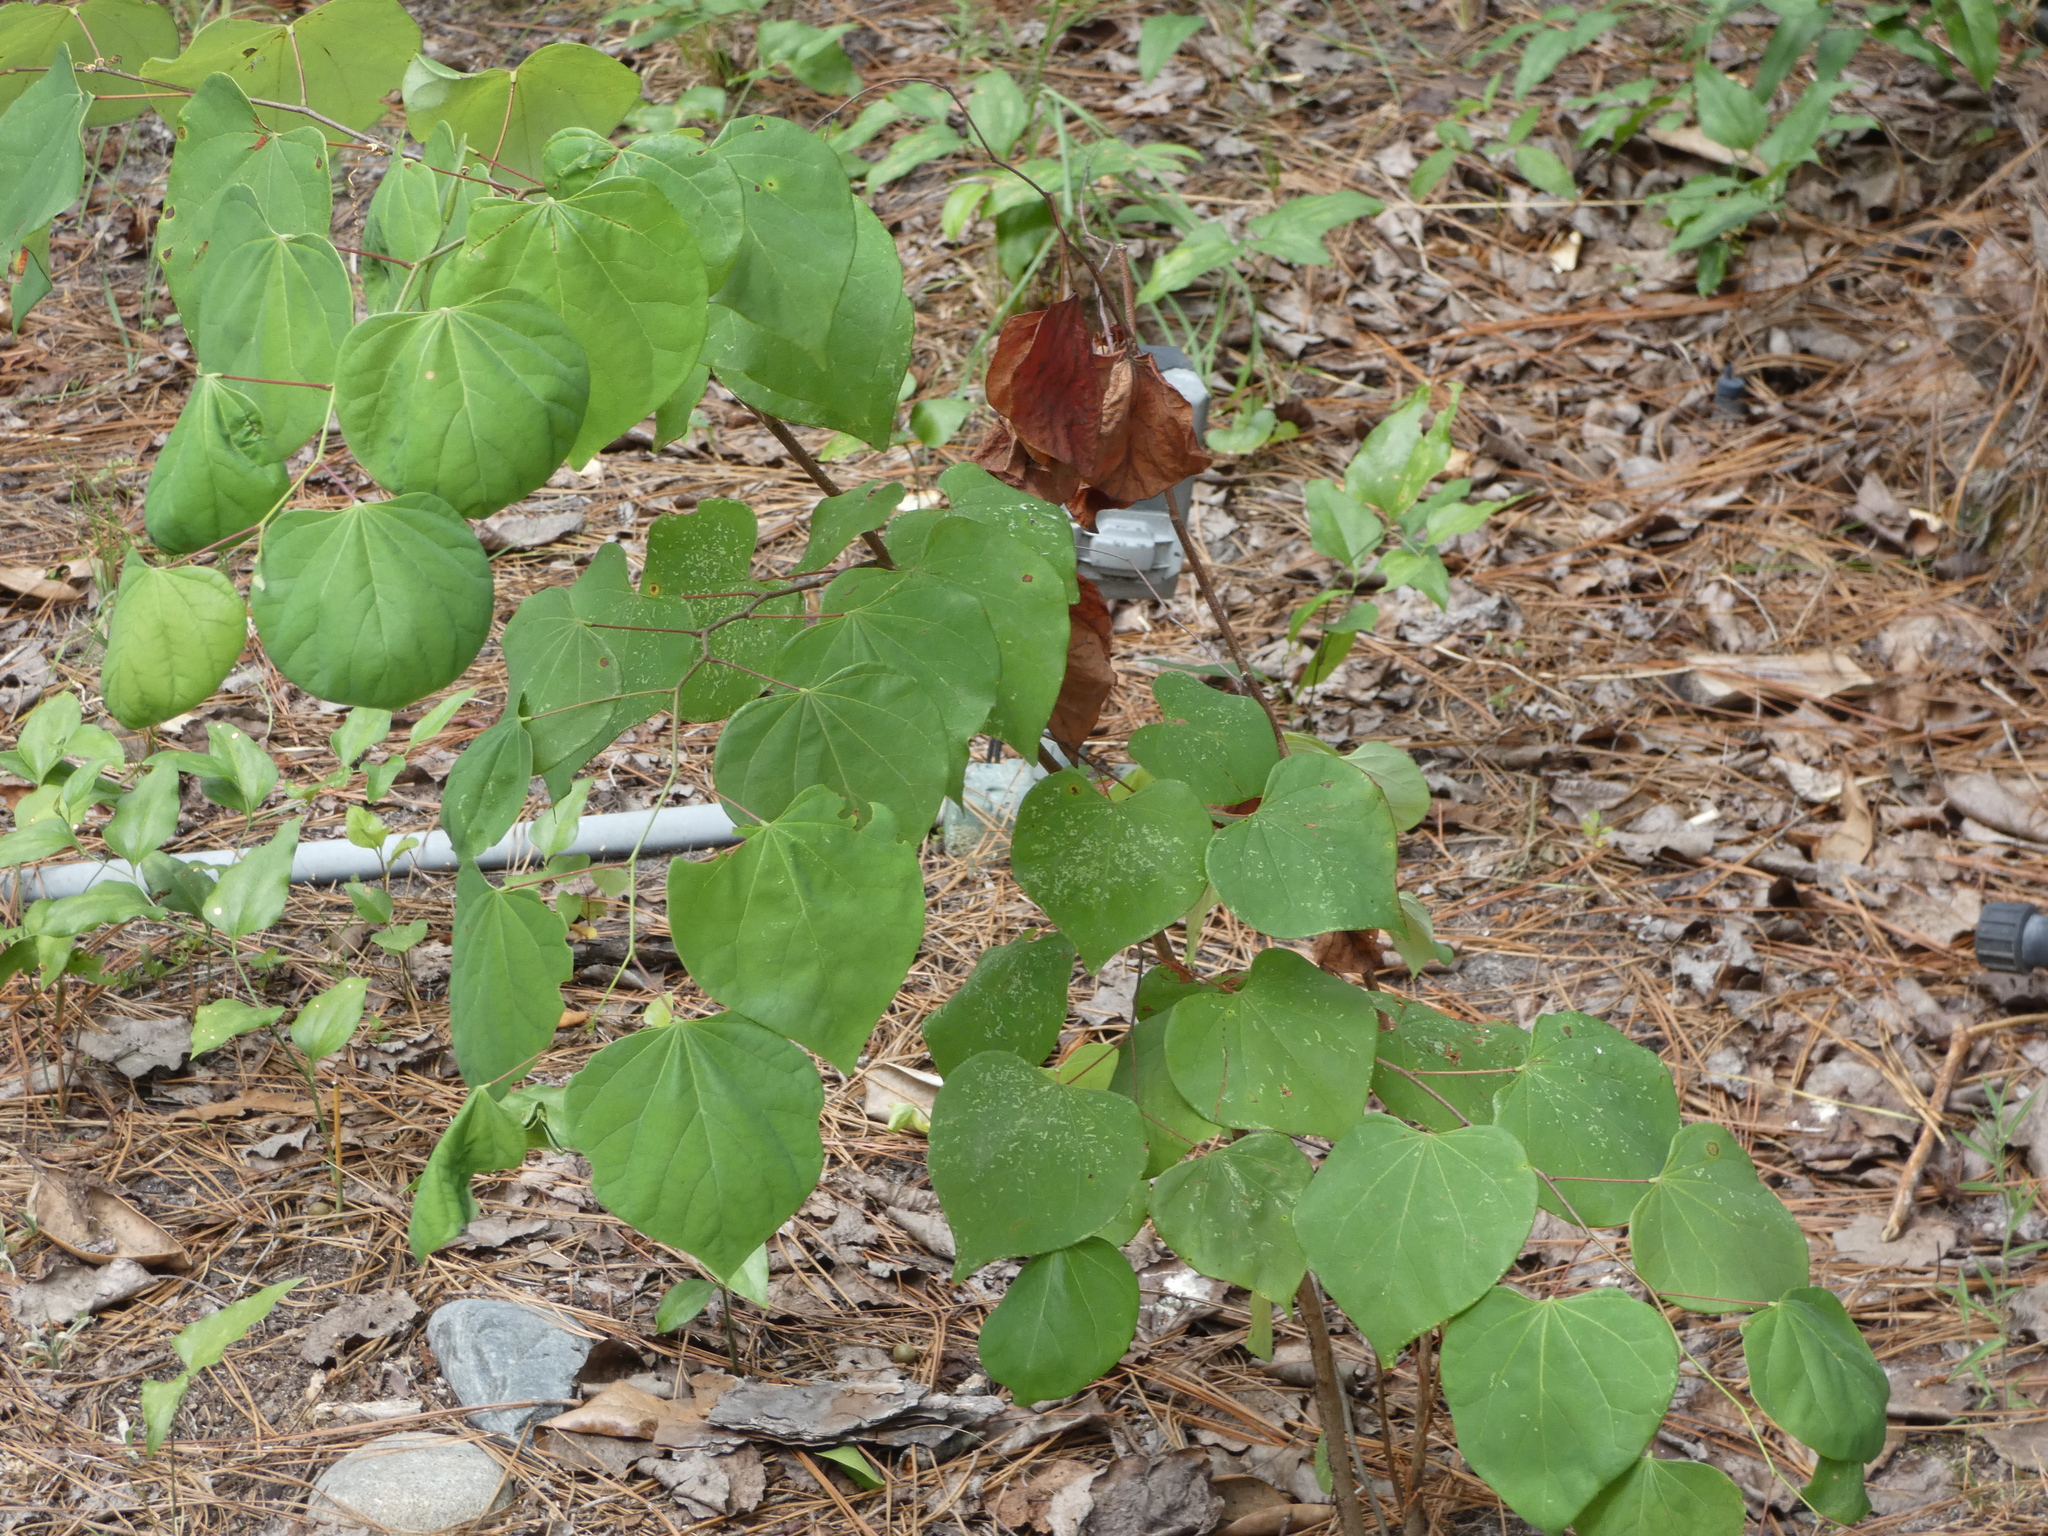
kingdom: Plantae
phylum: Tracheophyta
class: Magnoliopsida
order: Fabales
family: Fabaceae
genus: Cercis
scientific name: Cercis canadensis
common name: Eastern redbud
